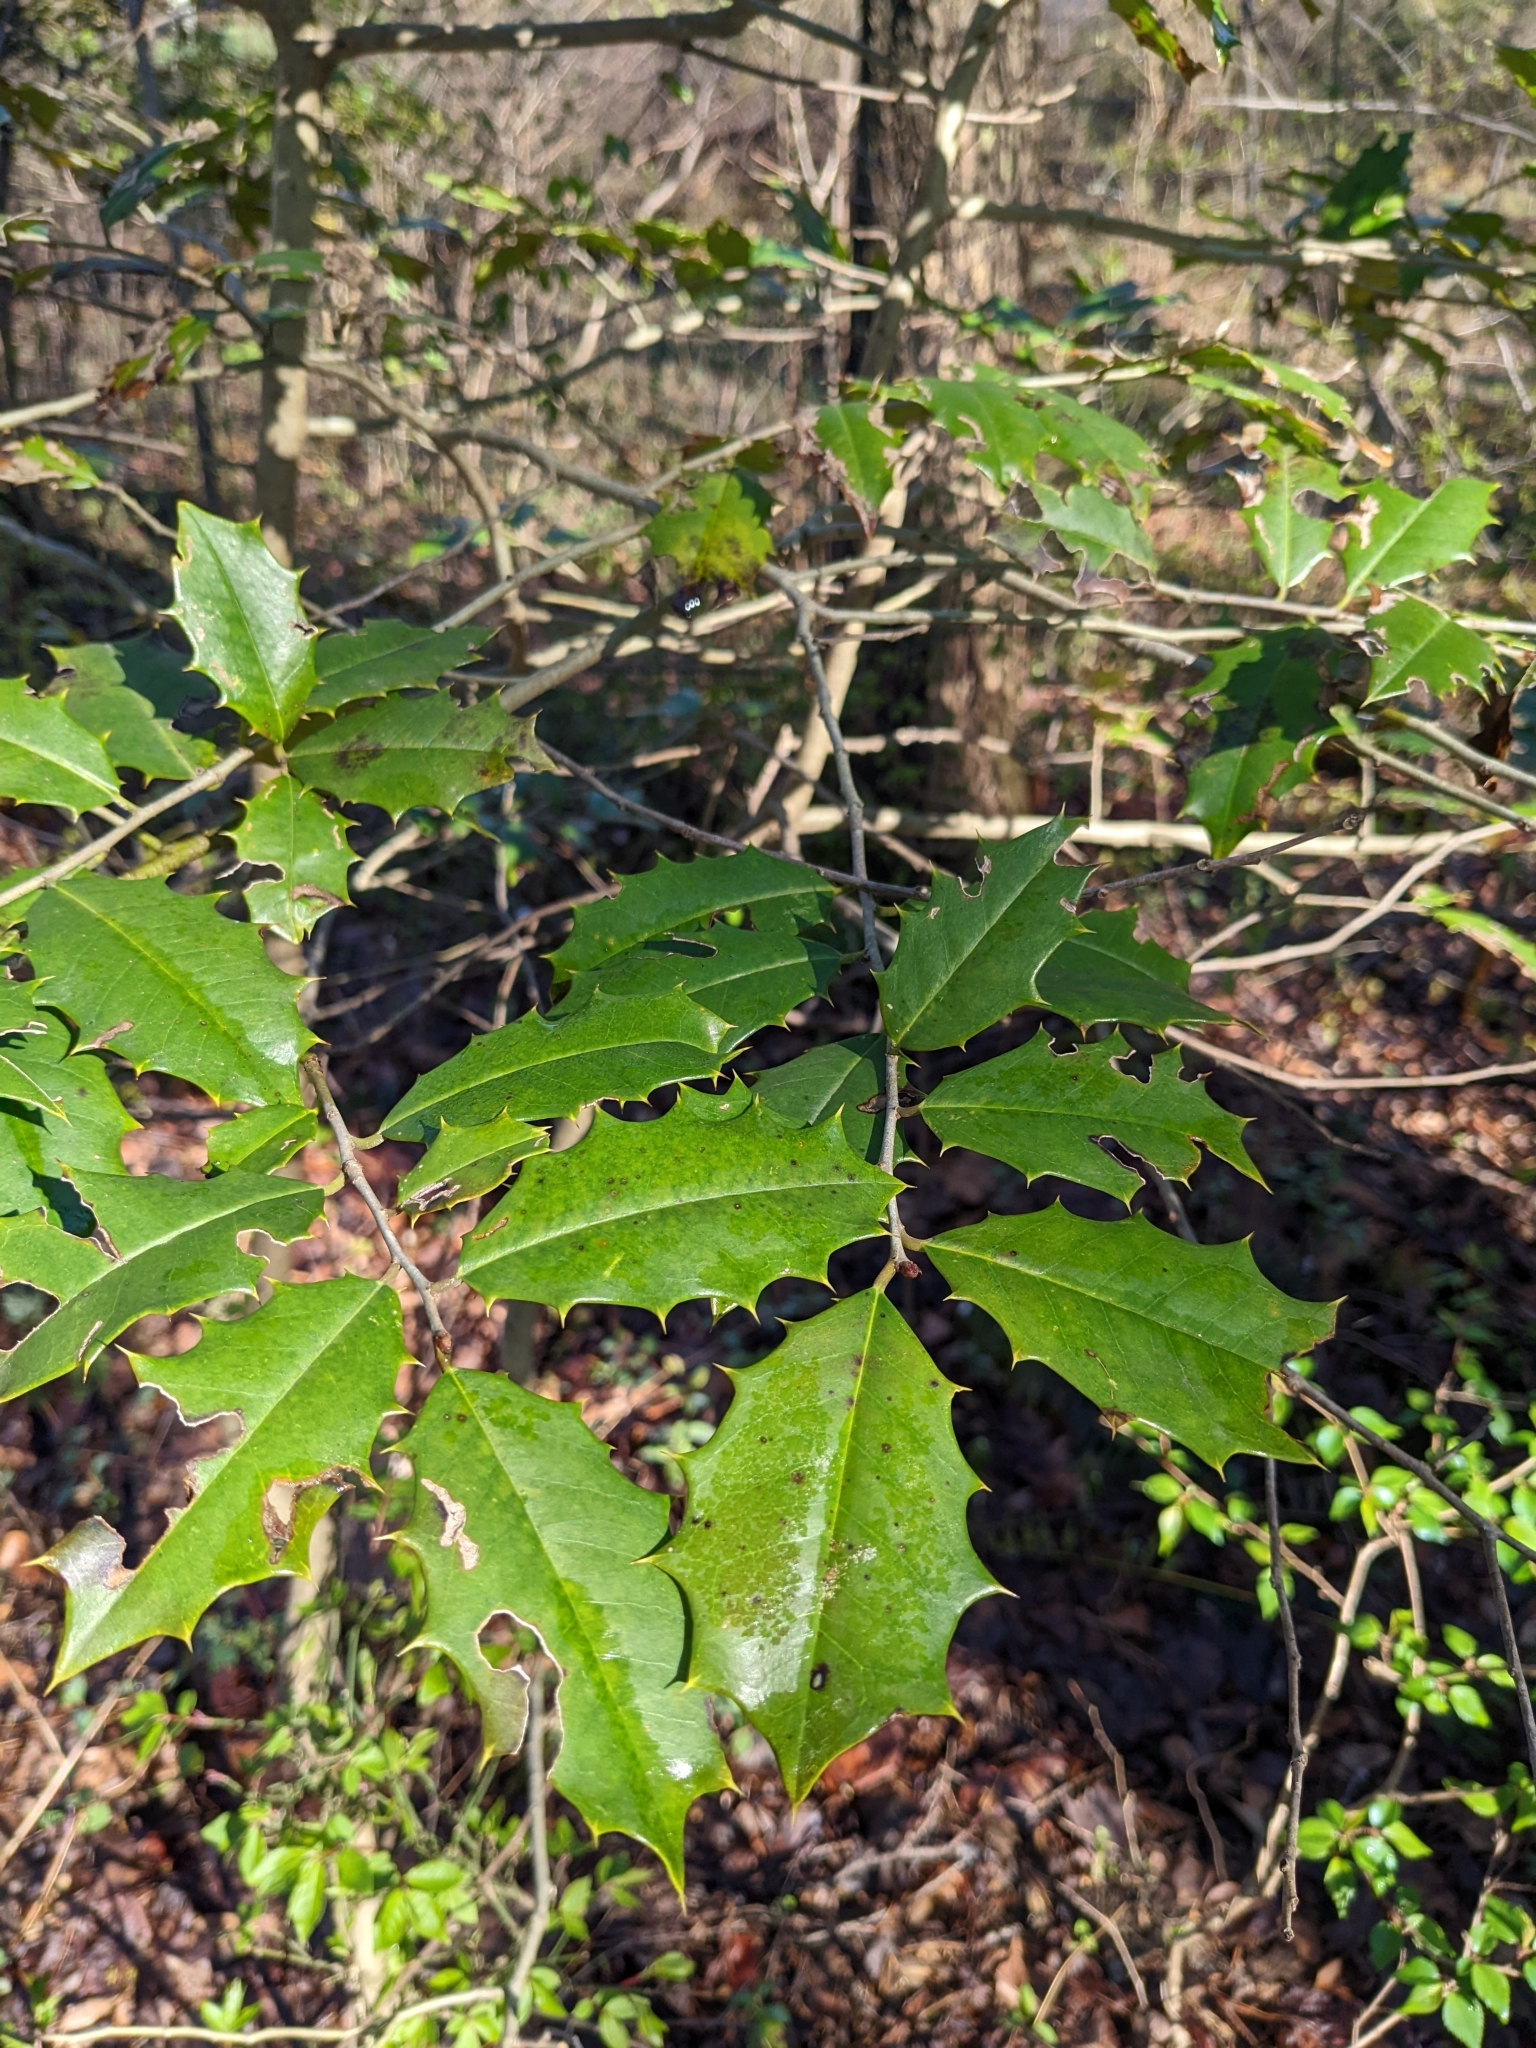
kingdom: Plantae
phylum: Tracheophyta
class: Magnoliopsida
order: Aquifoliales
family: Aquifoliaceae
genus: Ilex
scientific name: Ilex opaca
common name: American holly
